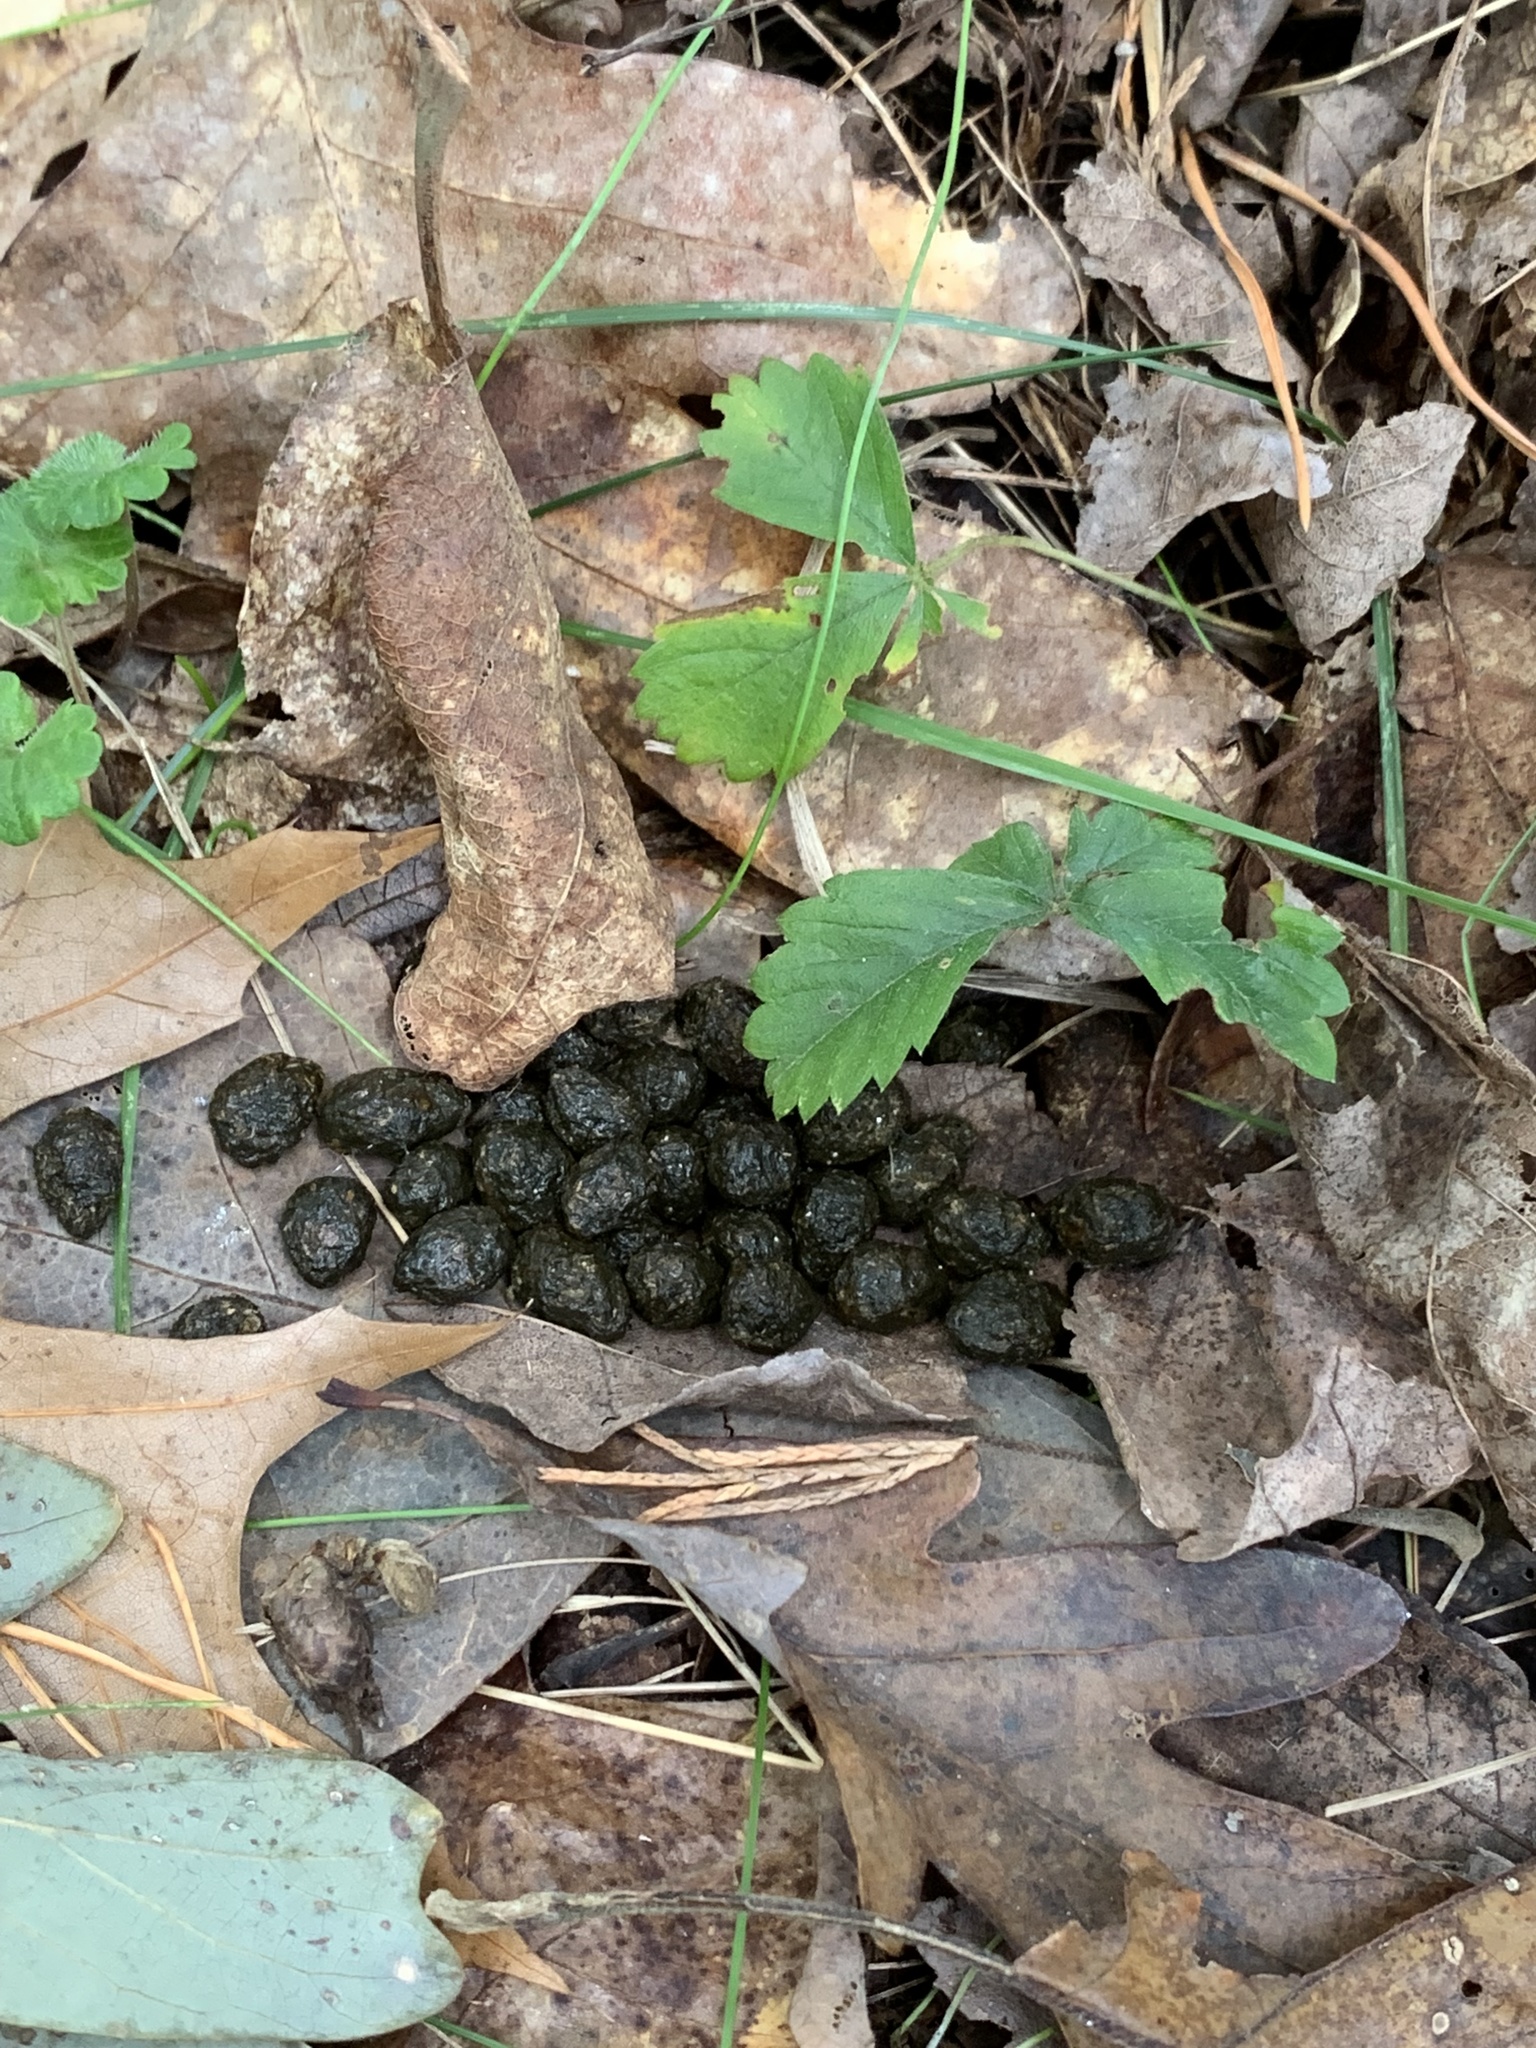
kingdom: Animalia
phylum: Chordata
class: Mammalia
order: Lagomorpha
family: Leporidae
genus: Sylvilagus
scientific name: Sylvilagus floridanus
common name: Eastern cottontail
